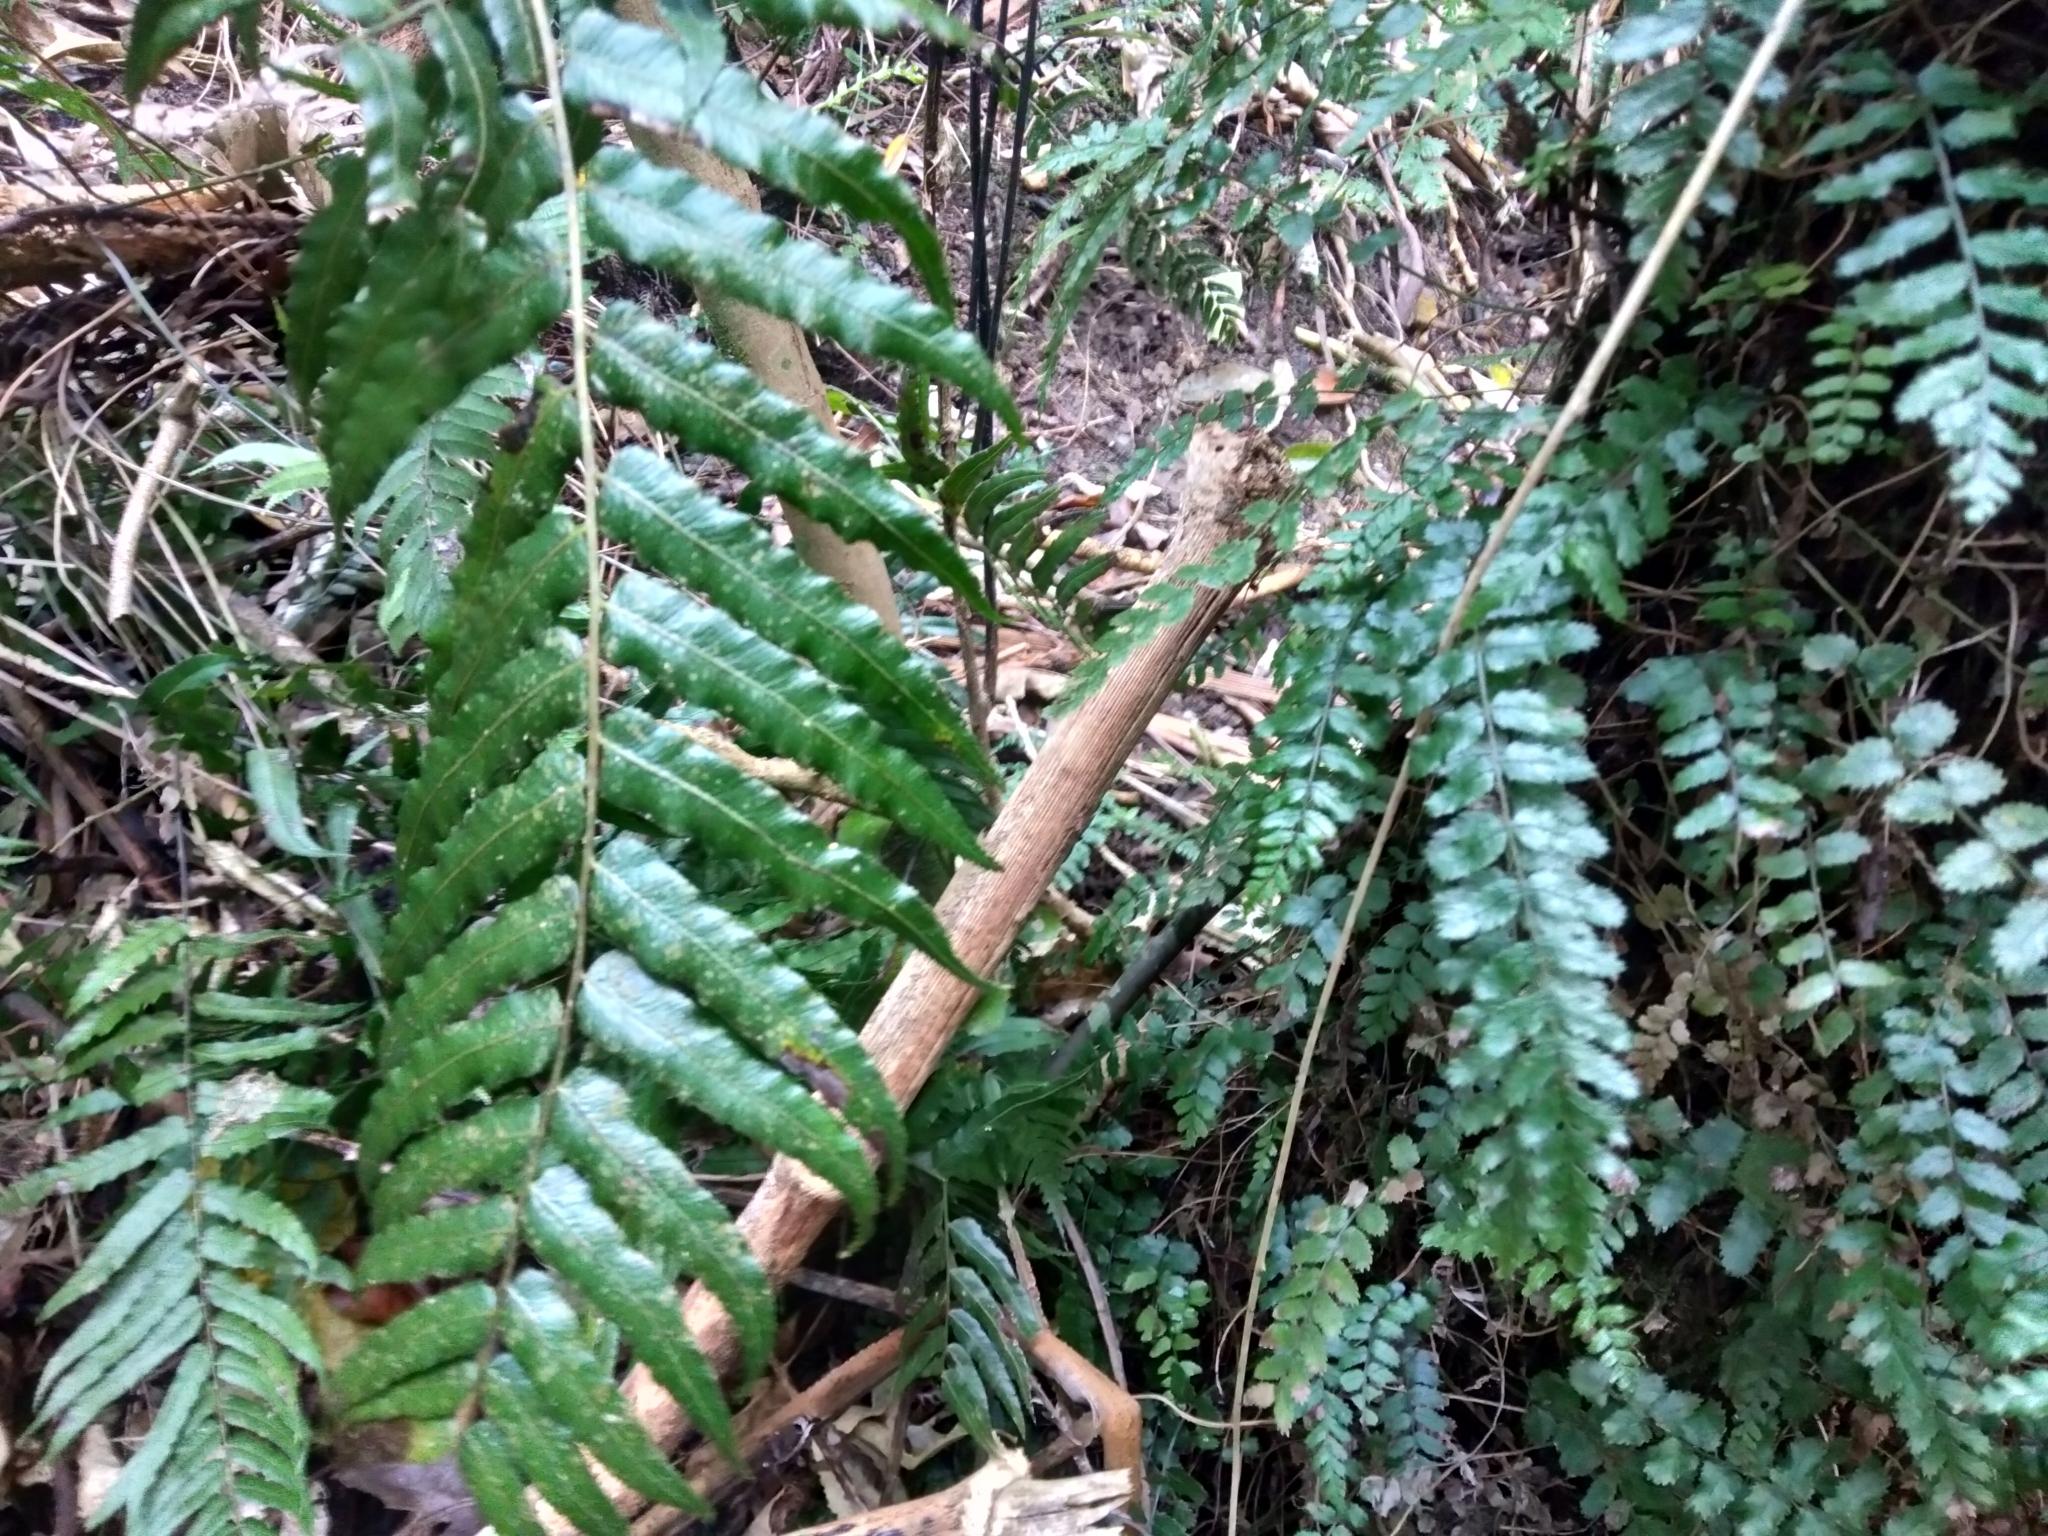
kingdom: Plantae
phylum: Tracheophyta
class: Polypodiopsida
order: Polypodiales
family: Blechnaceae
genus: Icarus
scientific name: Icarus filiformis
